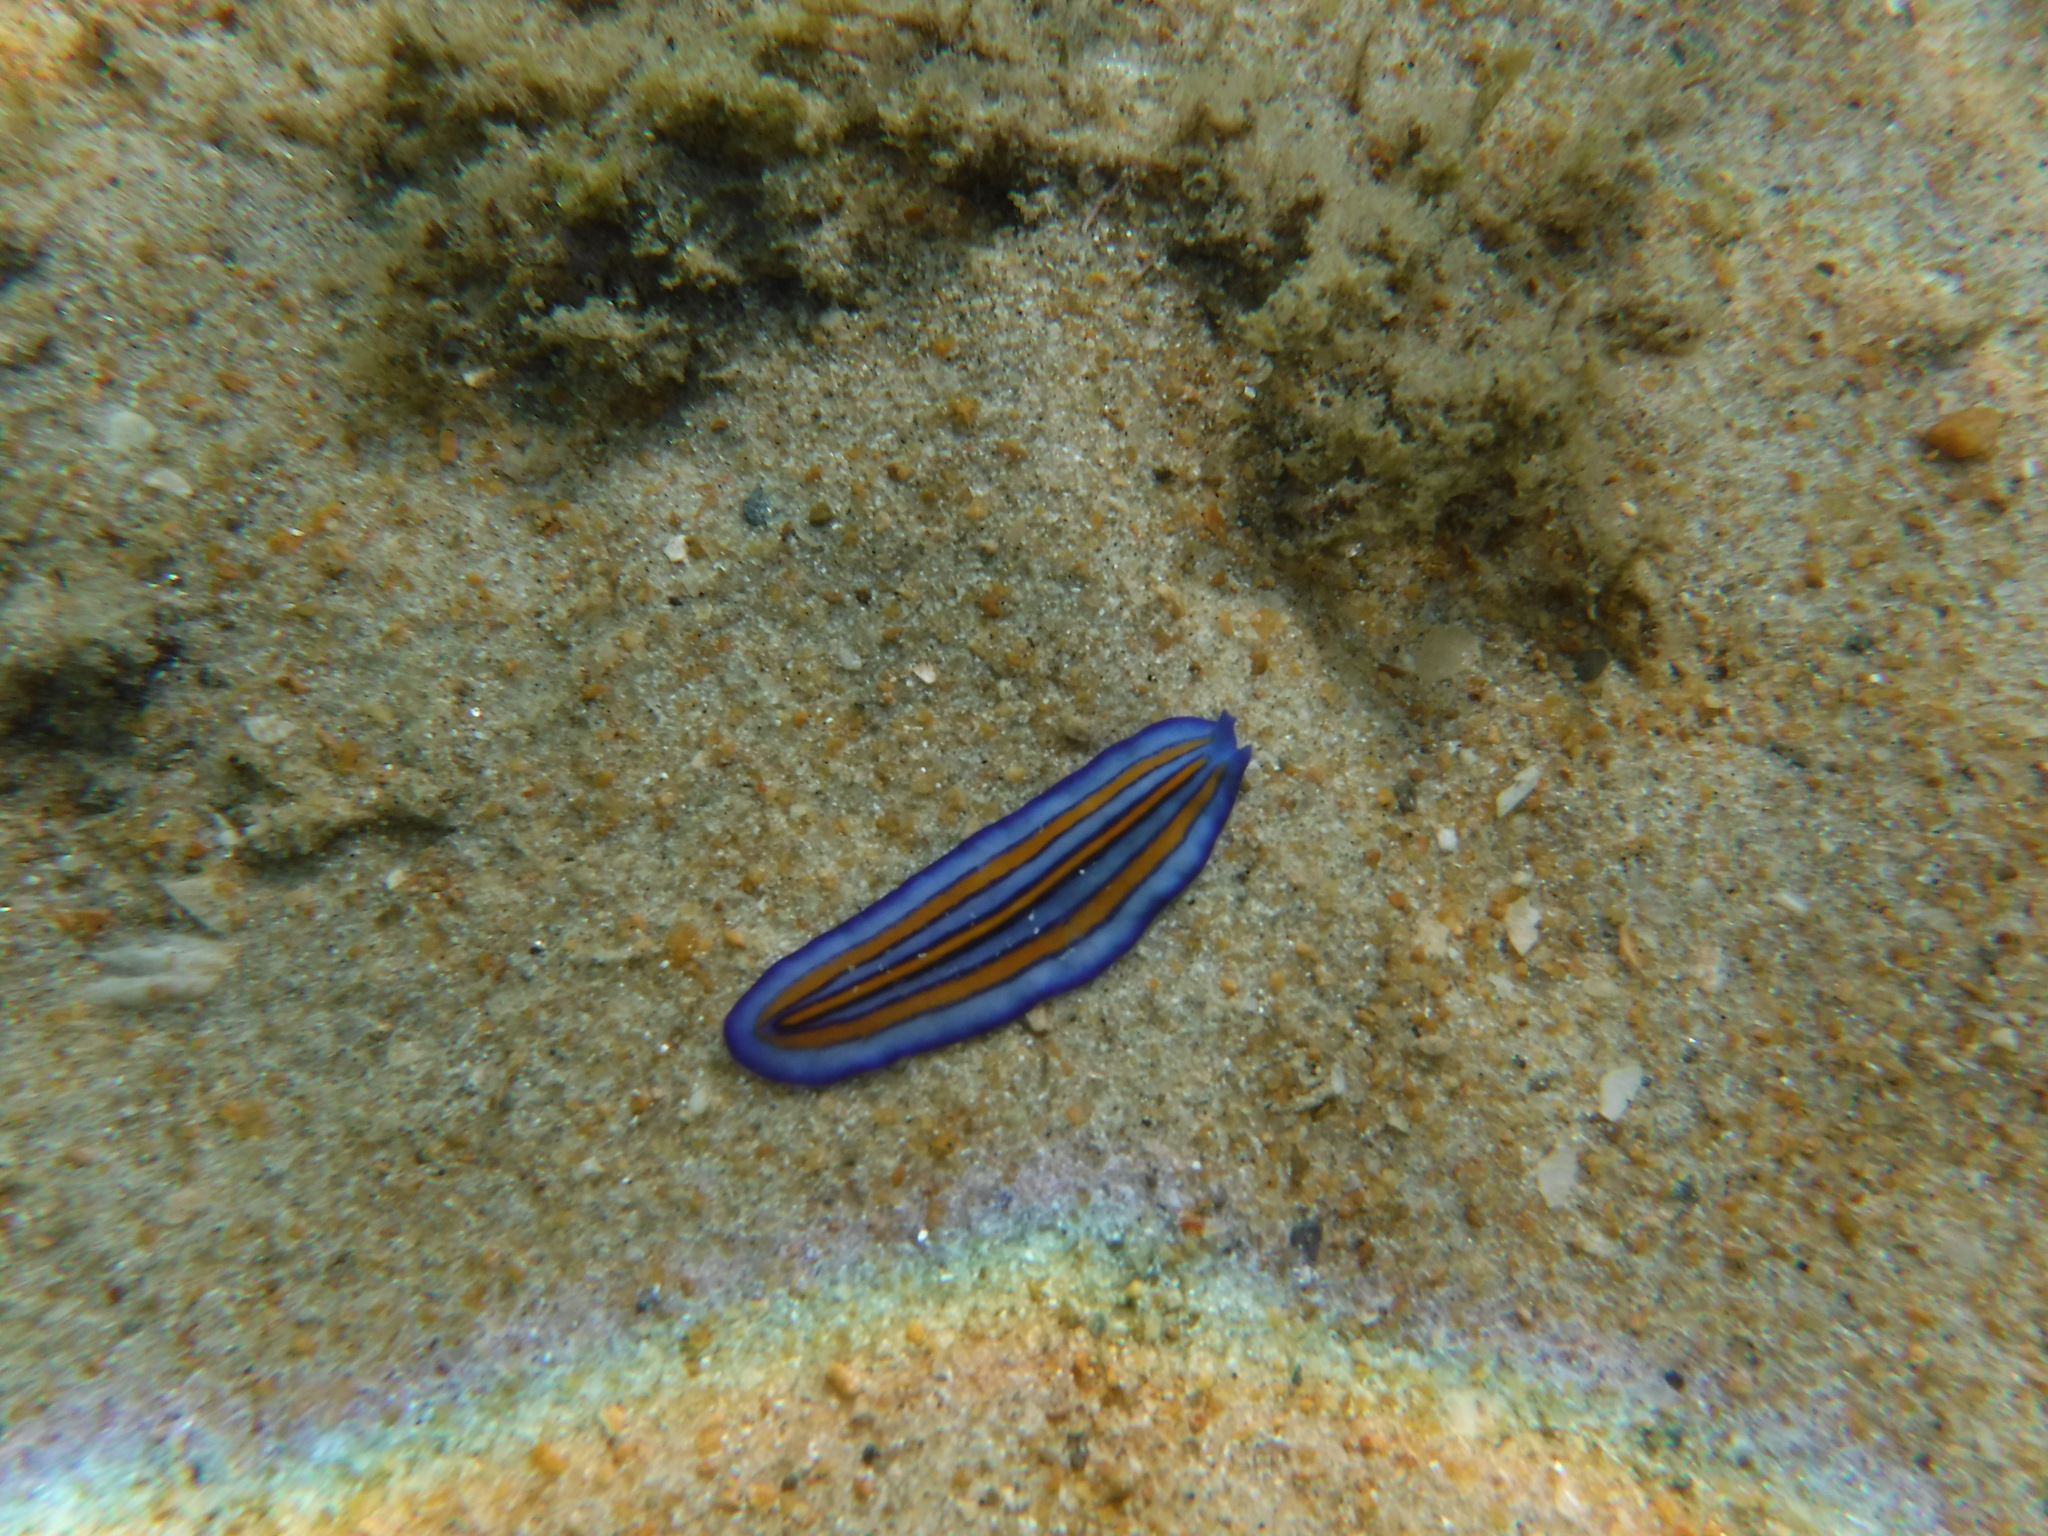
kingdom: Animalia
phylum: Platyhelminthes
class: Turbellaria
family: Pseudocerotidae
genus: Pseudoceros
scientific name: Pseudoceros tristriatus
